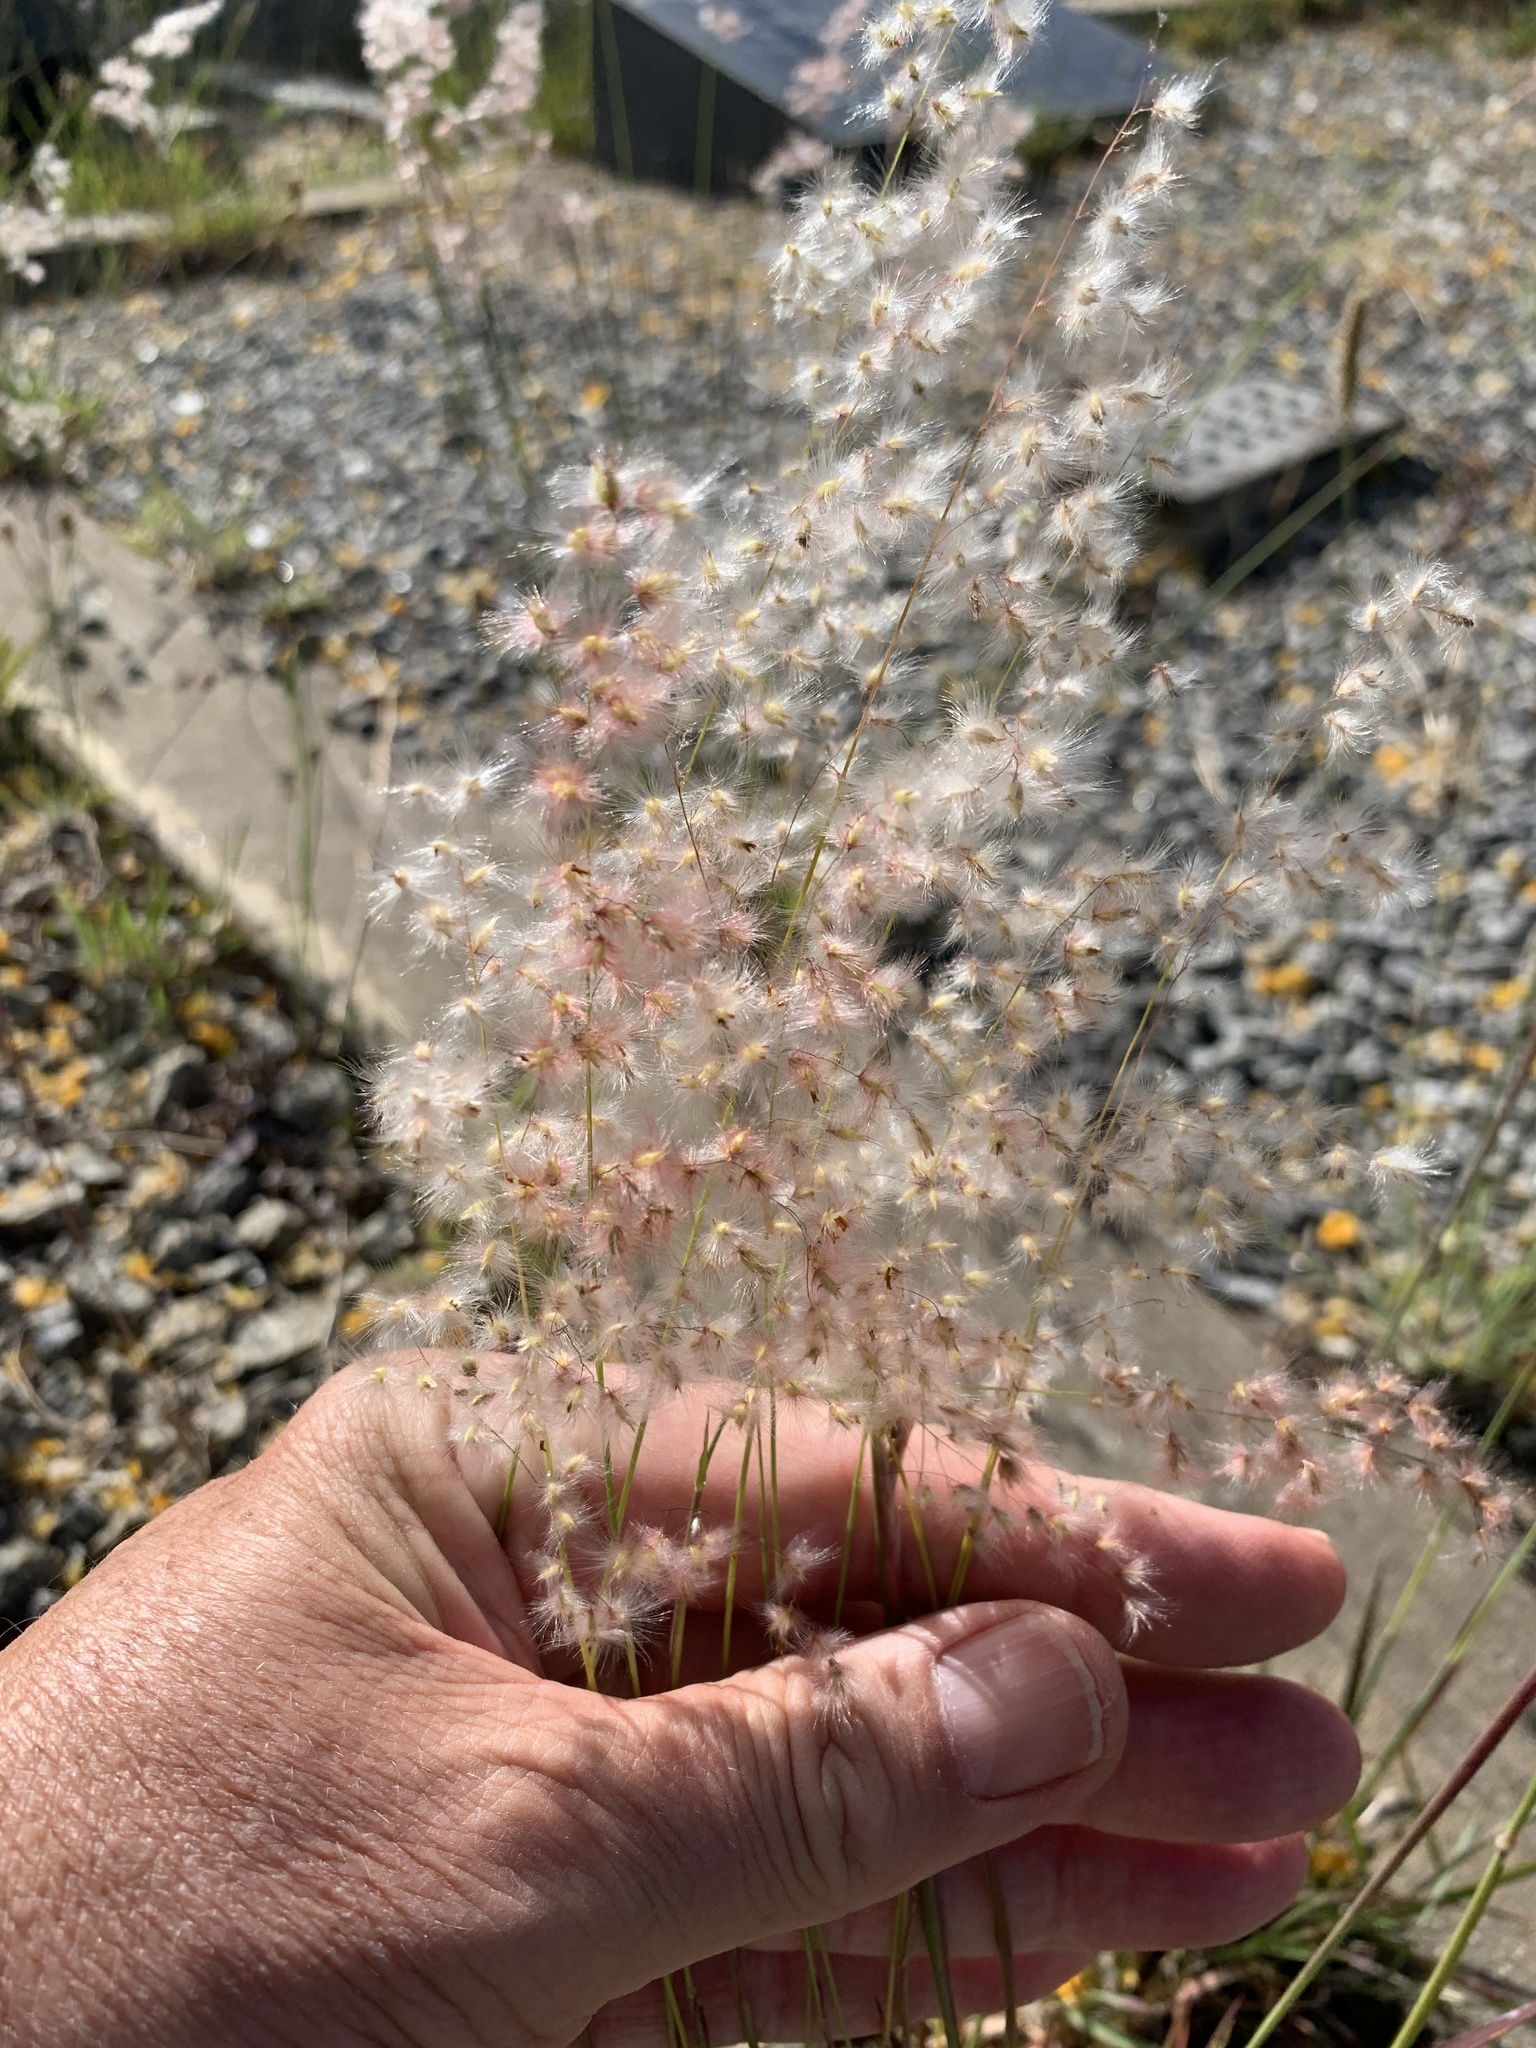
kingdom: Plantae
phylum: Tracheophyta
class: Liliopsida
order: Poales
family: Poaceae
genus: Melinis
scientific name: Melinis repens
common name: Rose natal grass
